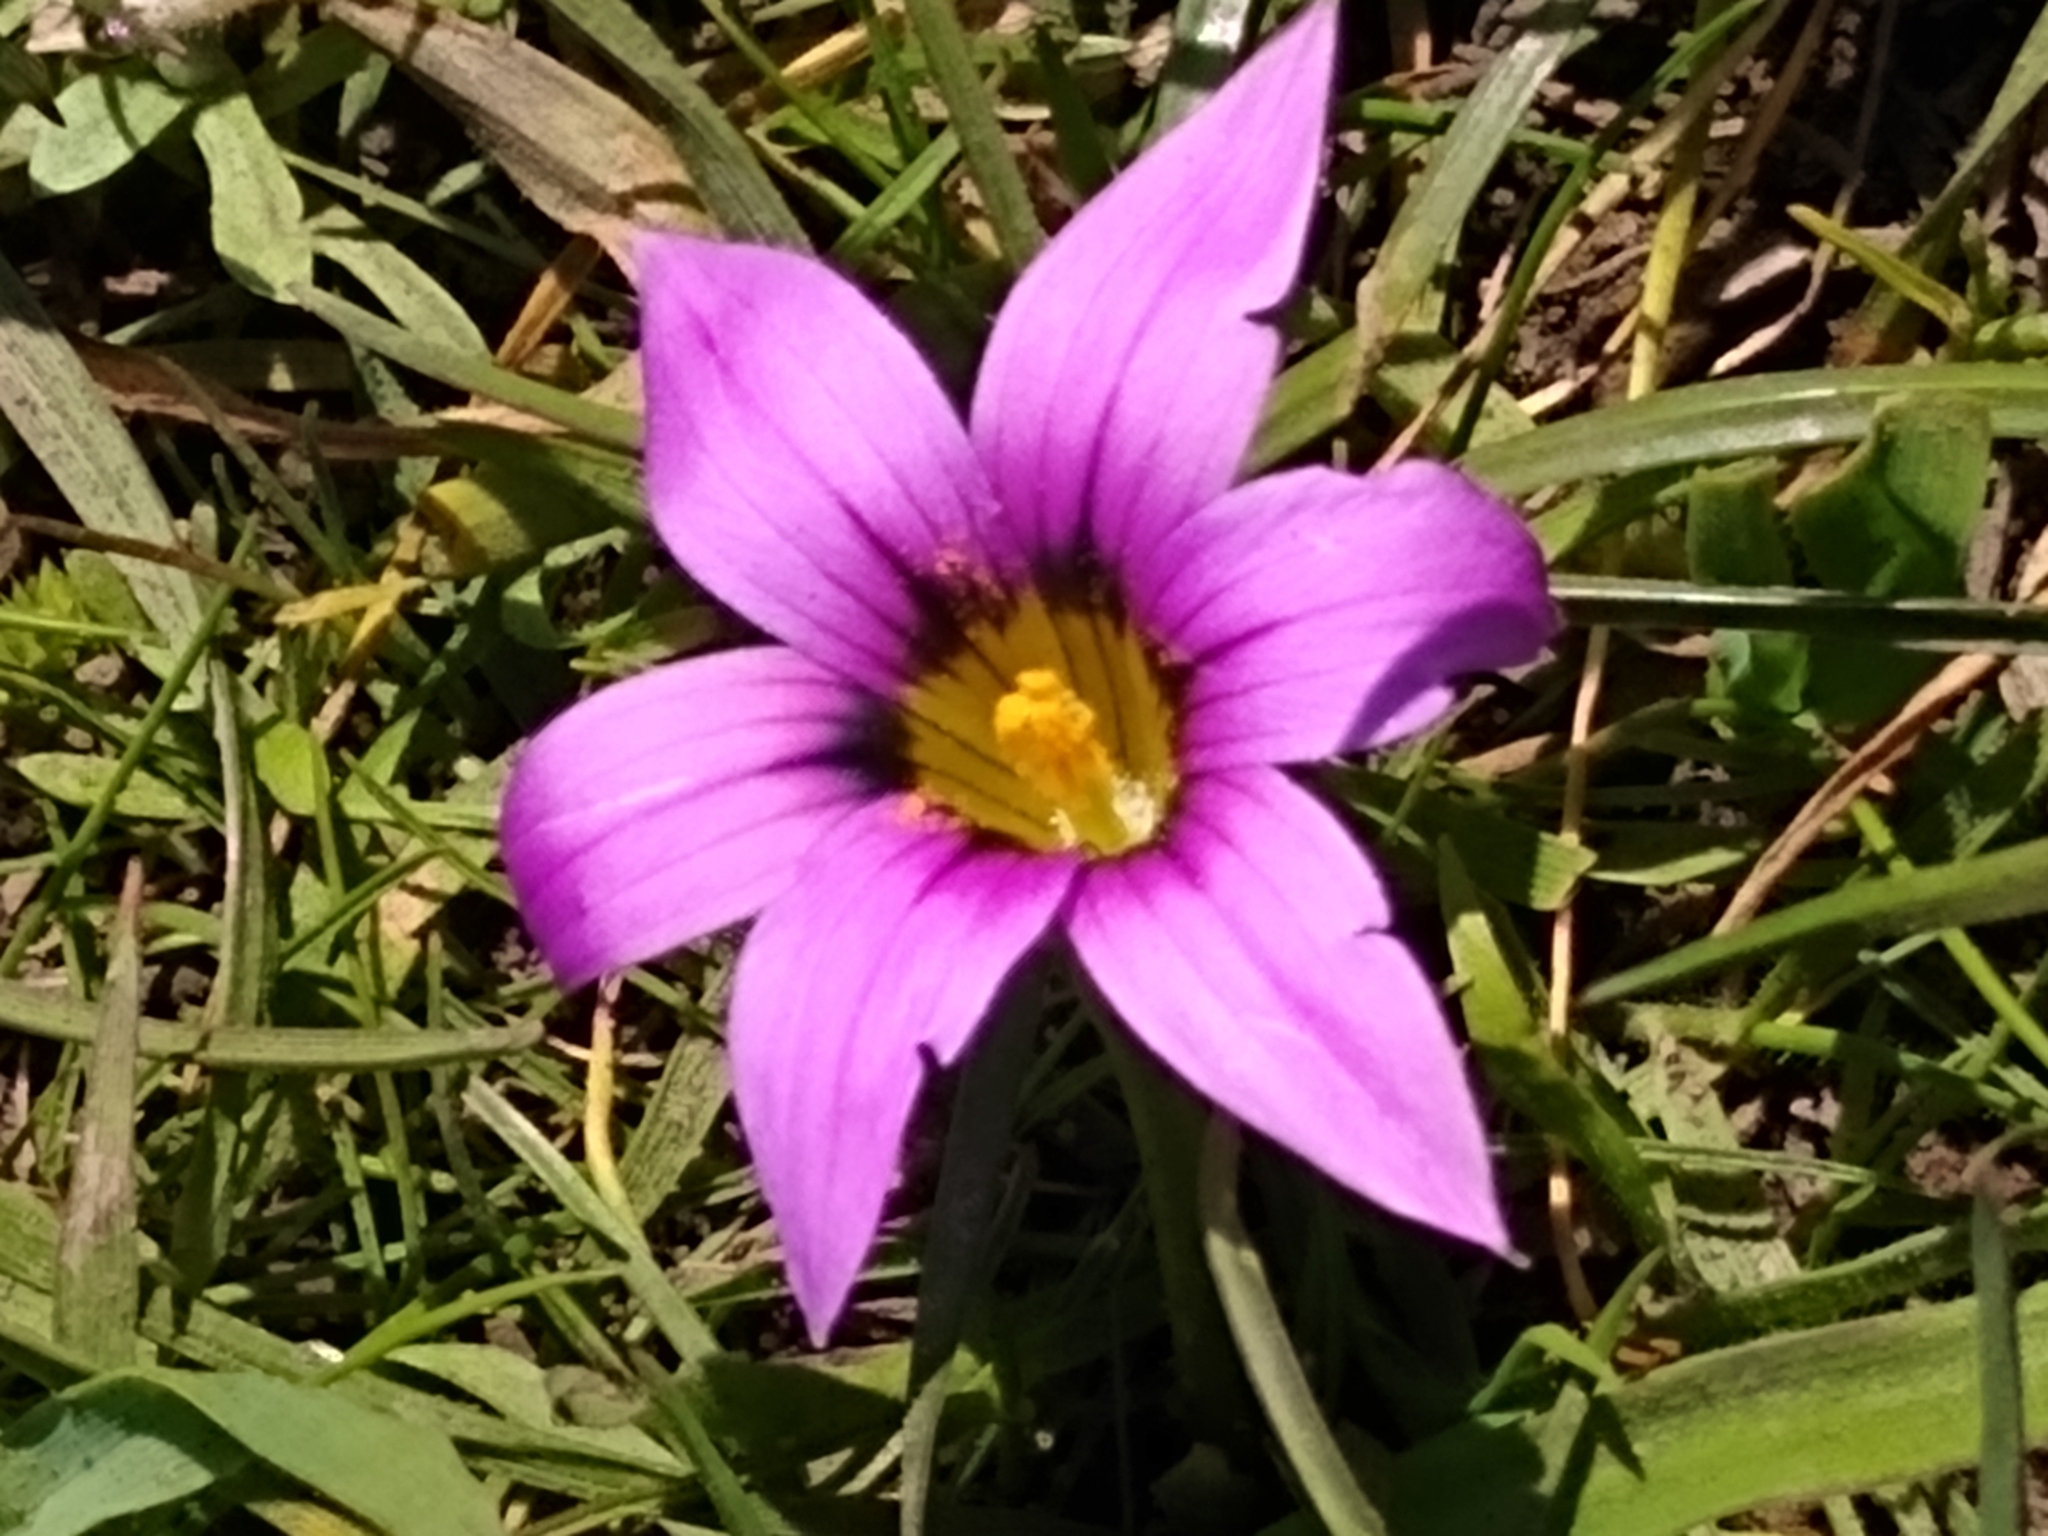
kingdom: Plantae
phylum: Tracheophyta
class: Liliopsida
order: Asparagales
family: Iridaceae
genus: Romulea
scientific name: Romulea rosea
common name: Oniongrass
